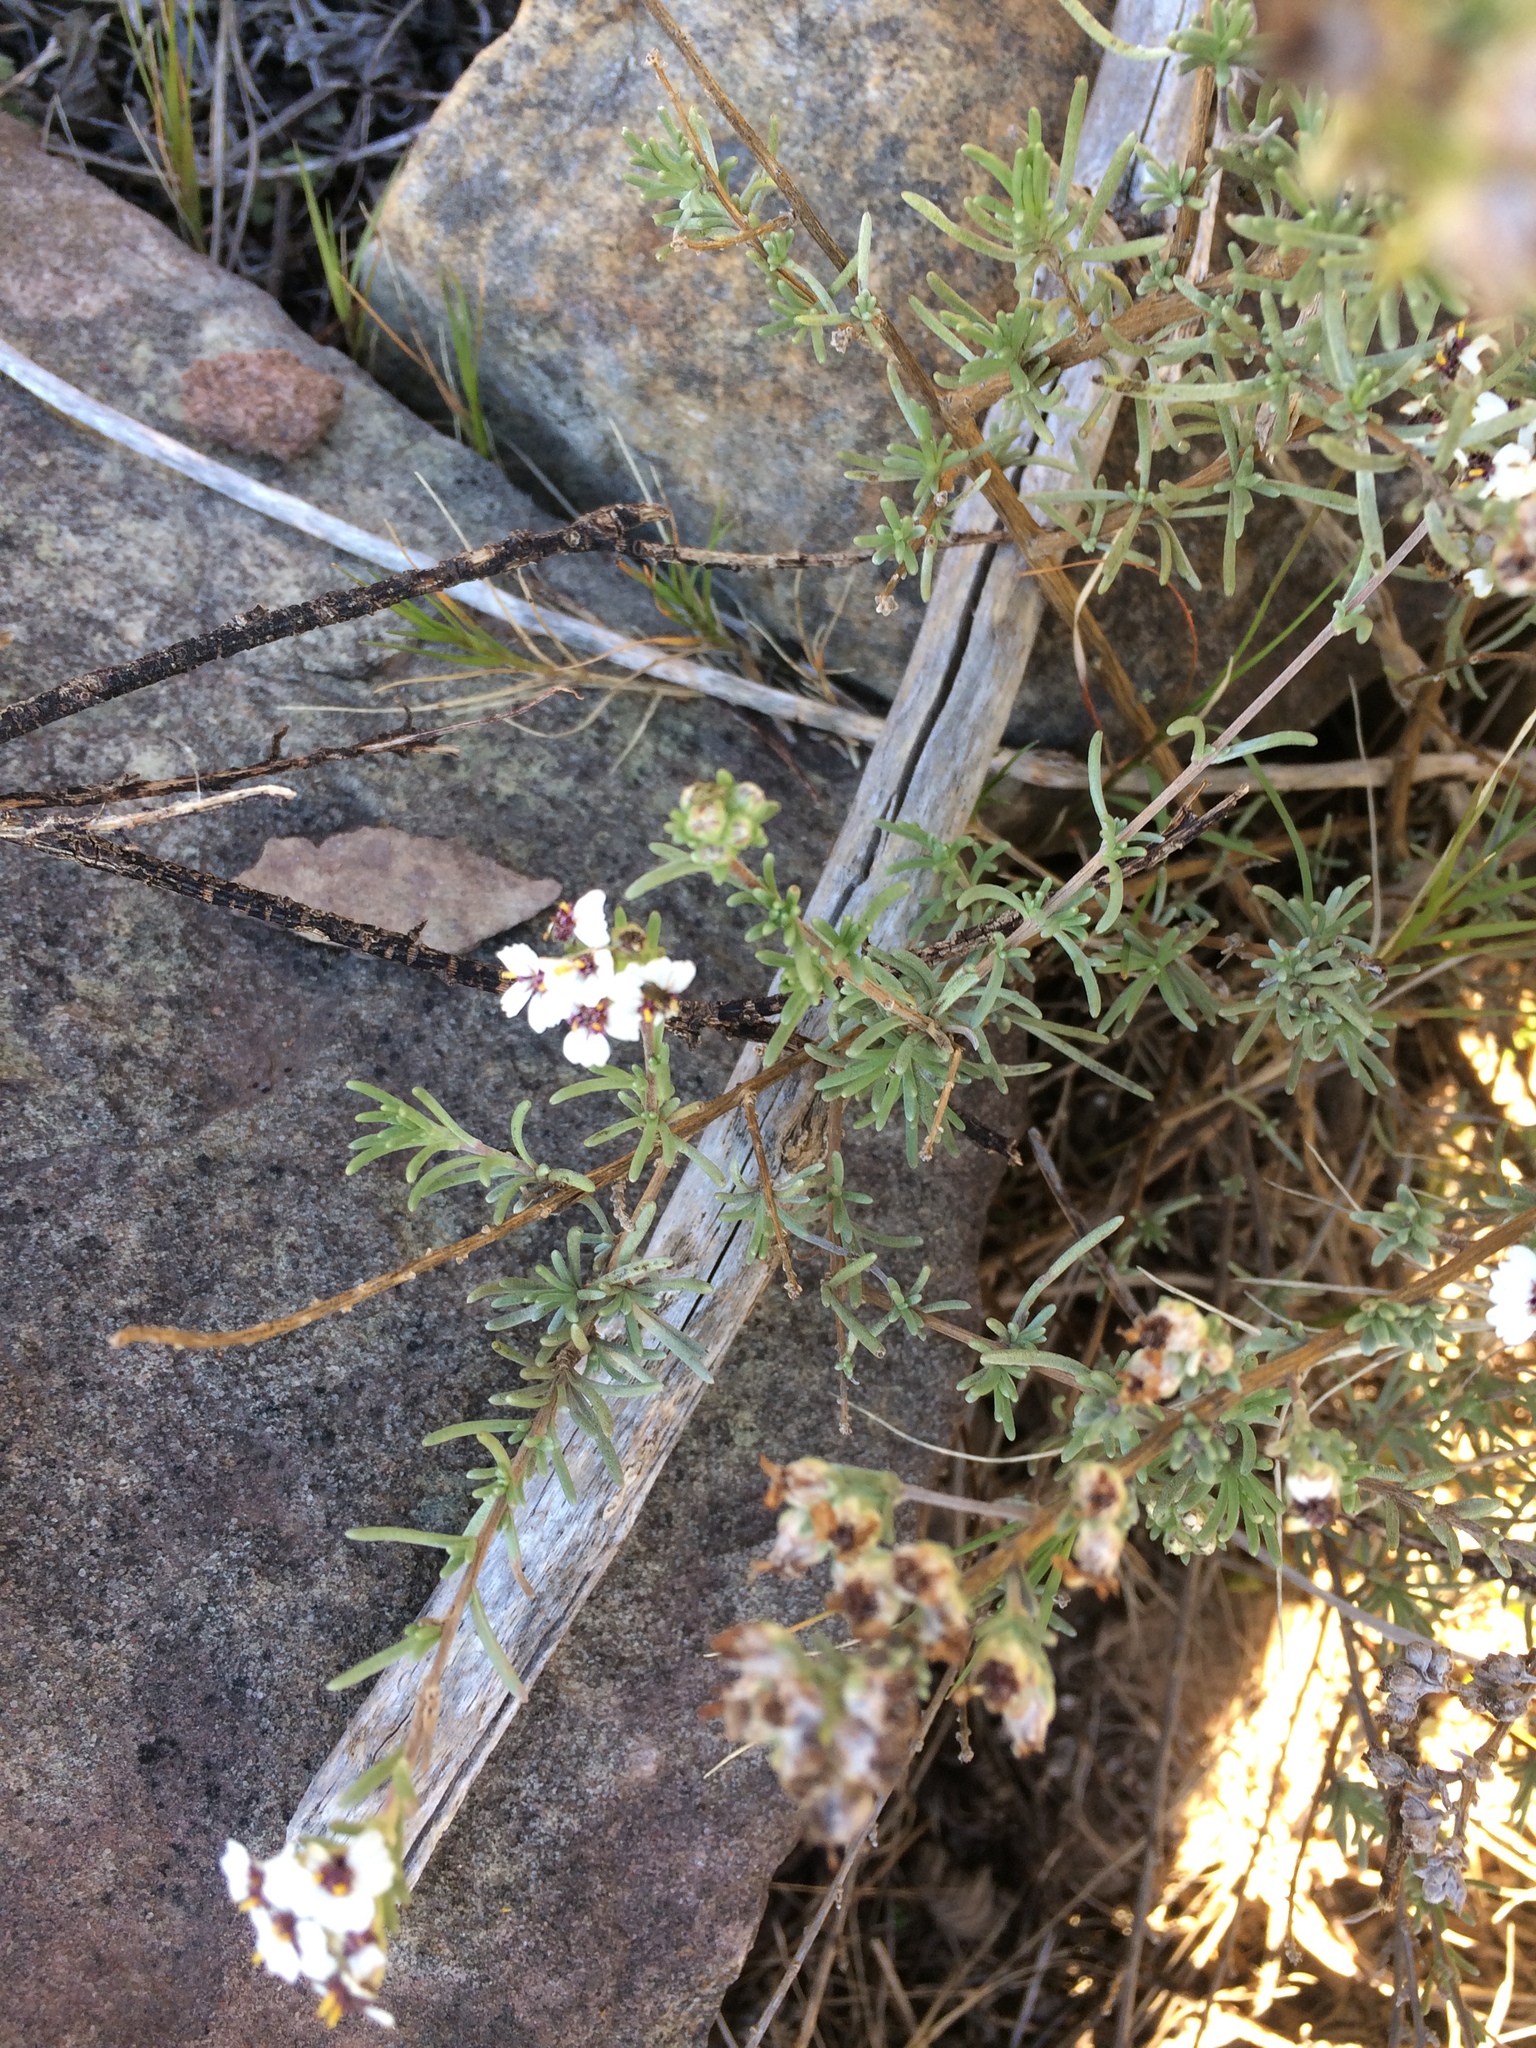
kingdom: Plantae
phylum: Tracheophyta
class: Magnoliopsida
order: Asterales
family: Asteraceae
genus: Eriocephalus
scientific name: Eriocephalus africanus
